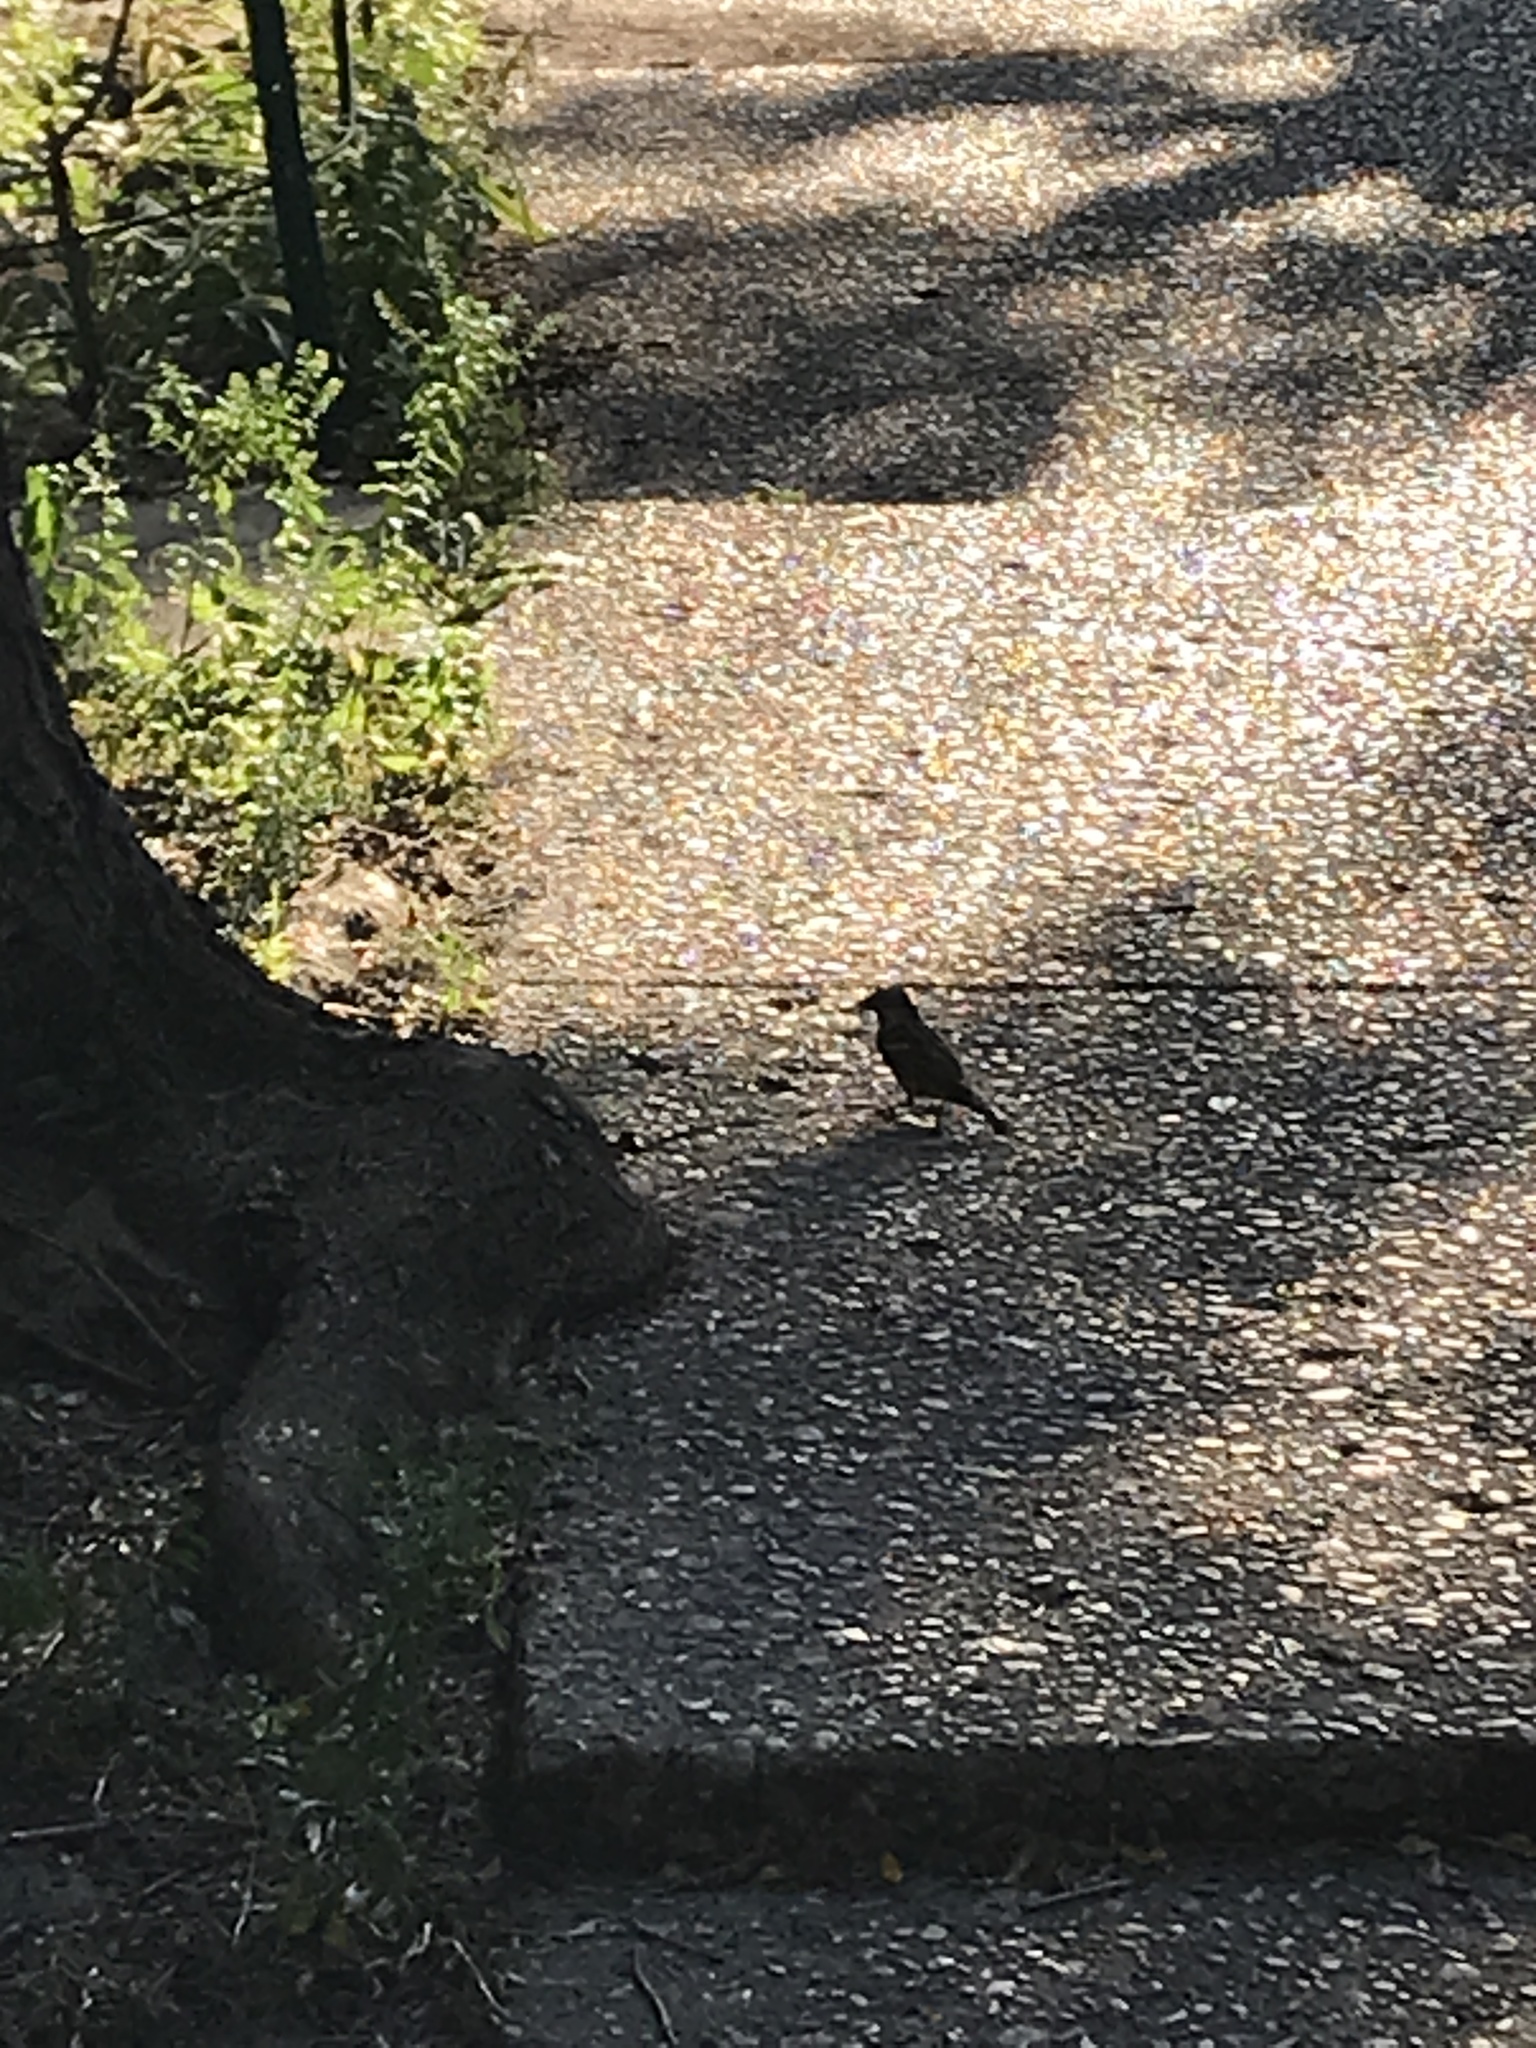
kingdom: Animalia
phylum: Chordata
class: Aves
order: Passeriformes
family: Passeridae
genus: Passer
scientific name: Passer domesticus
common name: House sparrow
